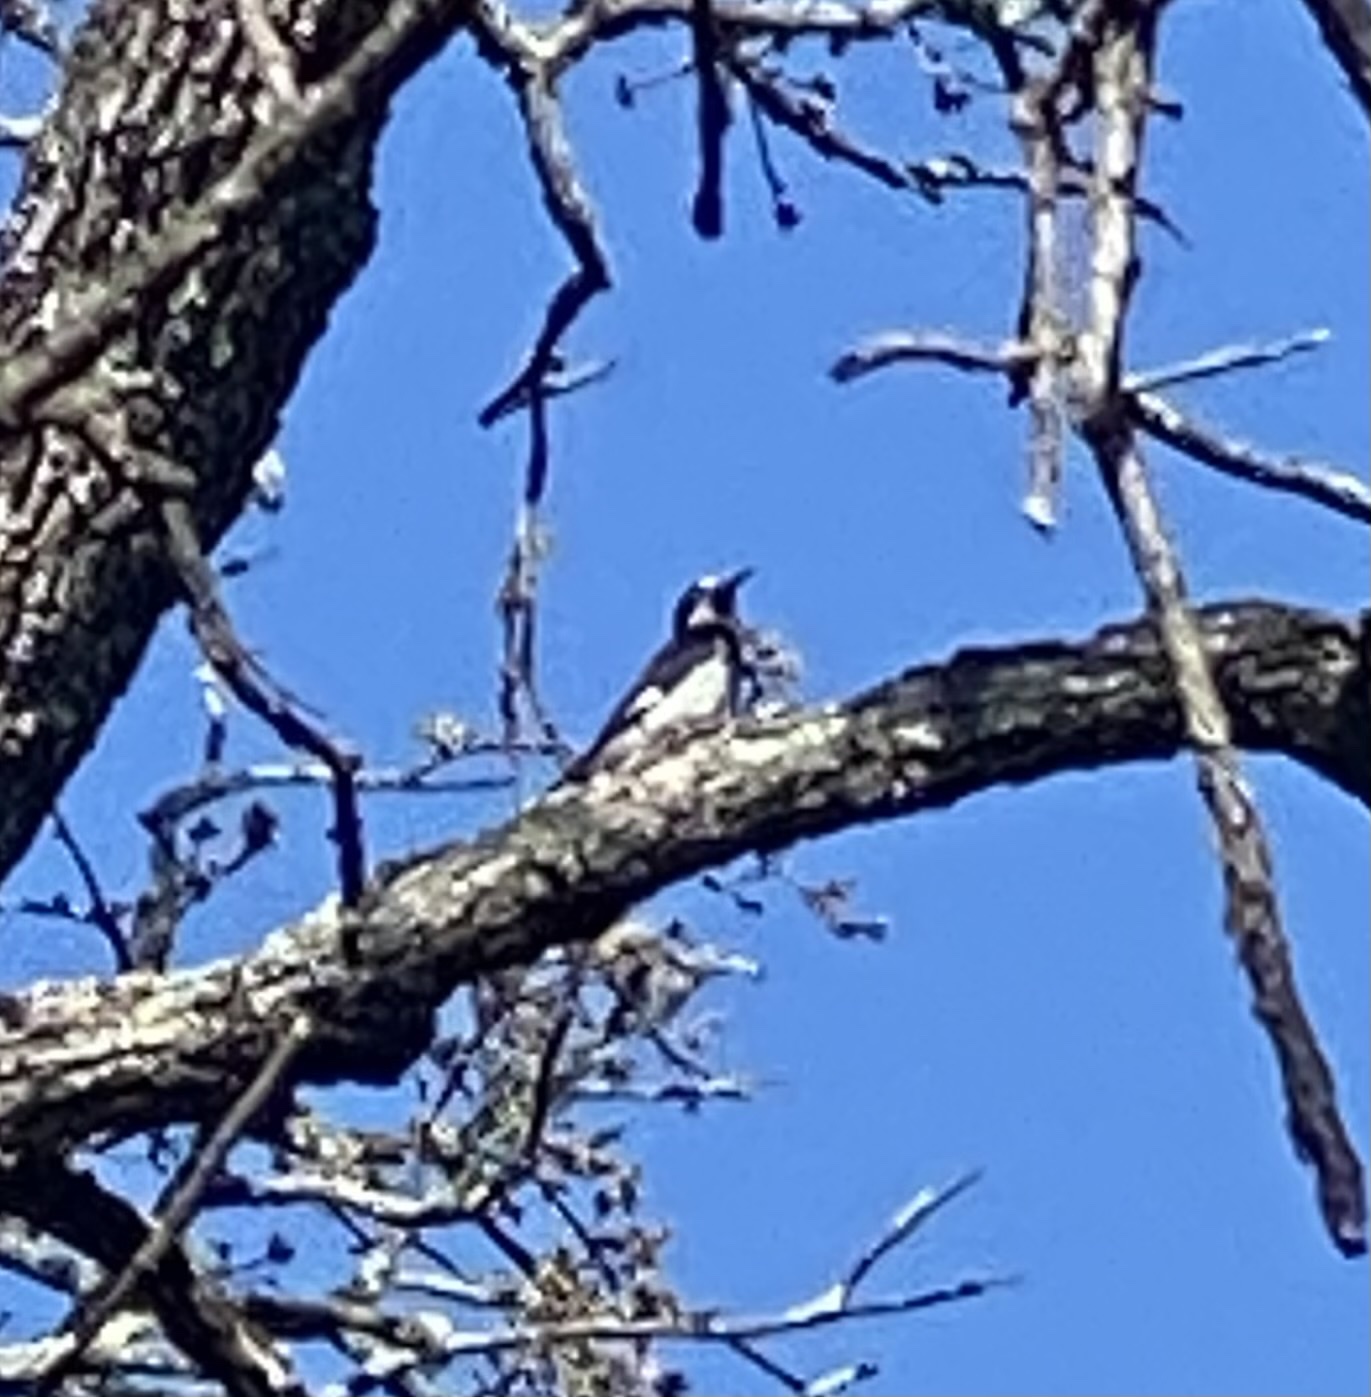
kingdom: Animalia
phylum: Chordata
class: Aves
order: Piciformes
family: Picidae
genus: Melanerpes
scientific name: Melanerpes formicivorus
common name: Acorn woodpecker
